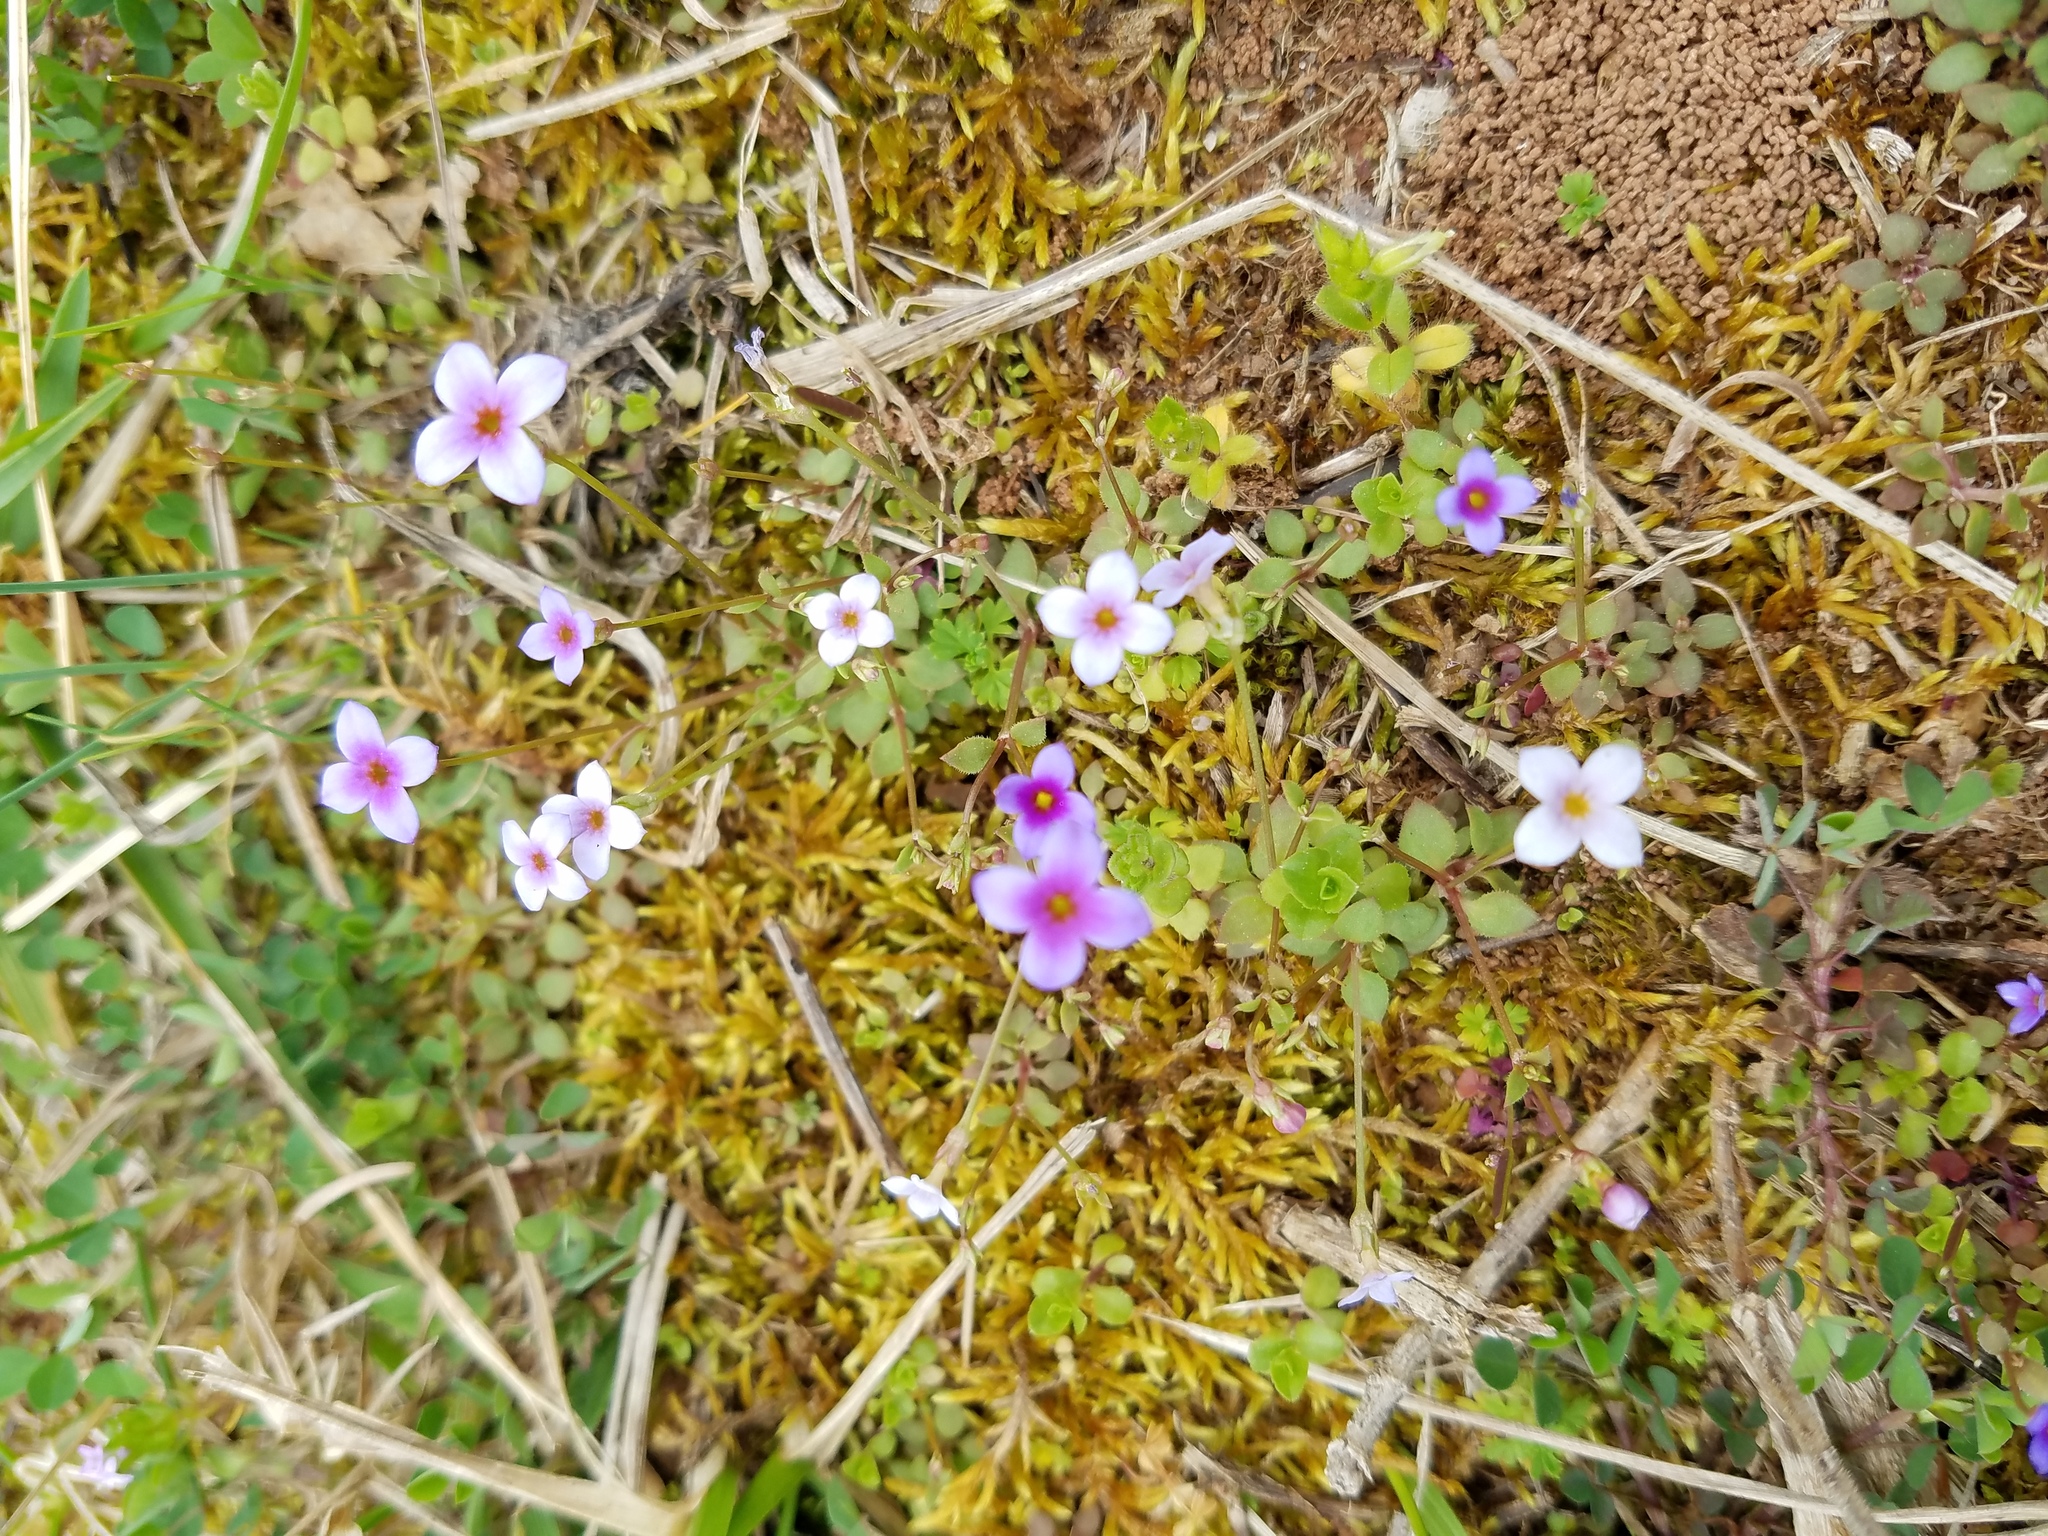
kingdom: Plantae
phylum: Tracheophyta
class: Magnoliopsida
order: Gentianales
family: Rubiaceae
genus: Houstonia
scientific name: Houstonia pusilla
